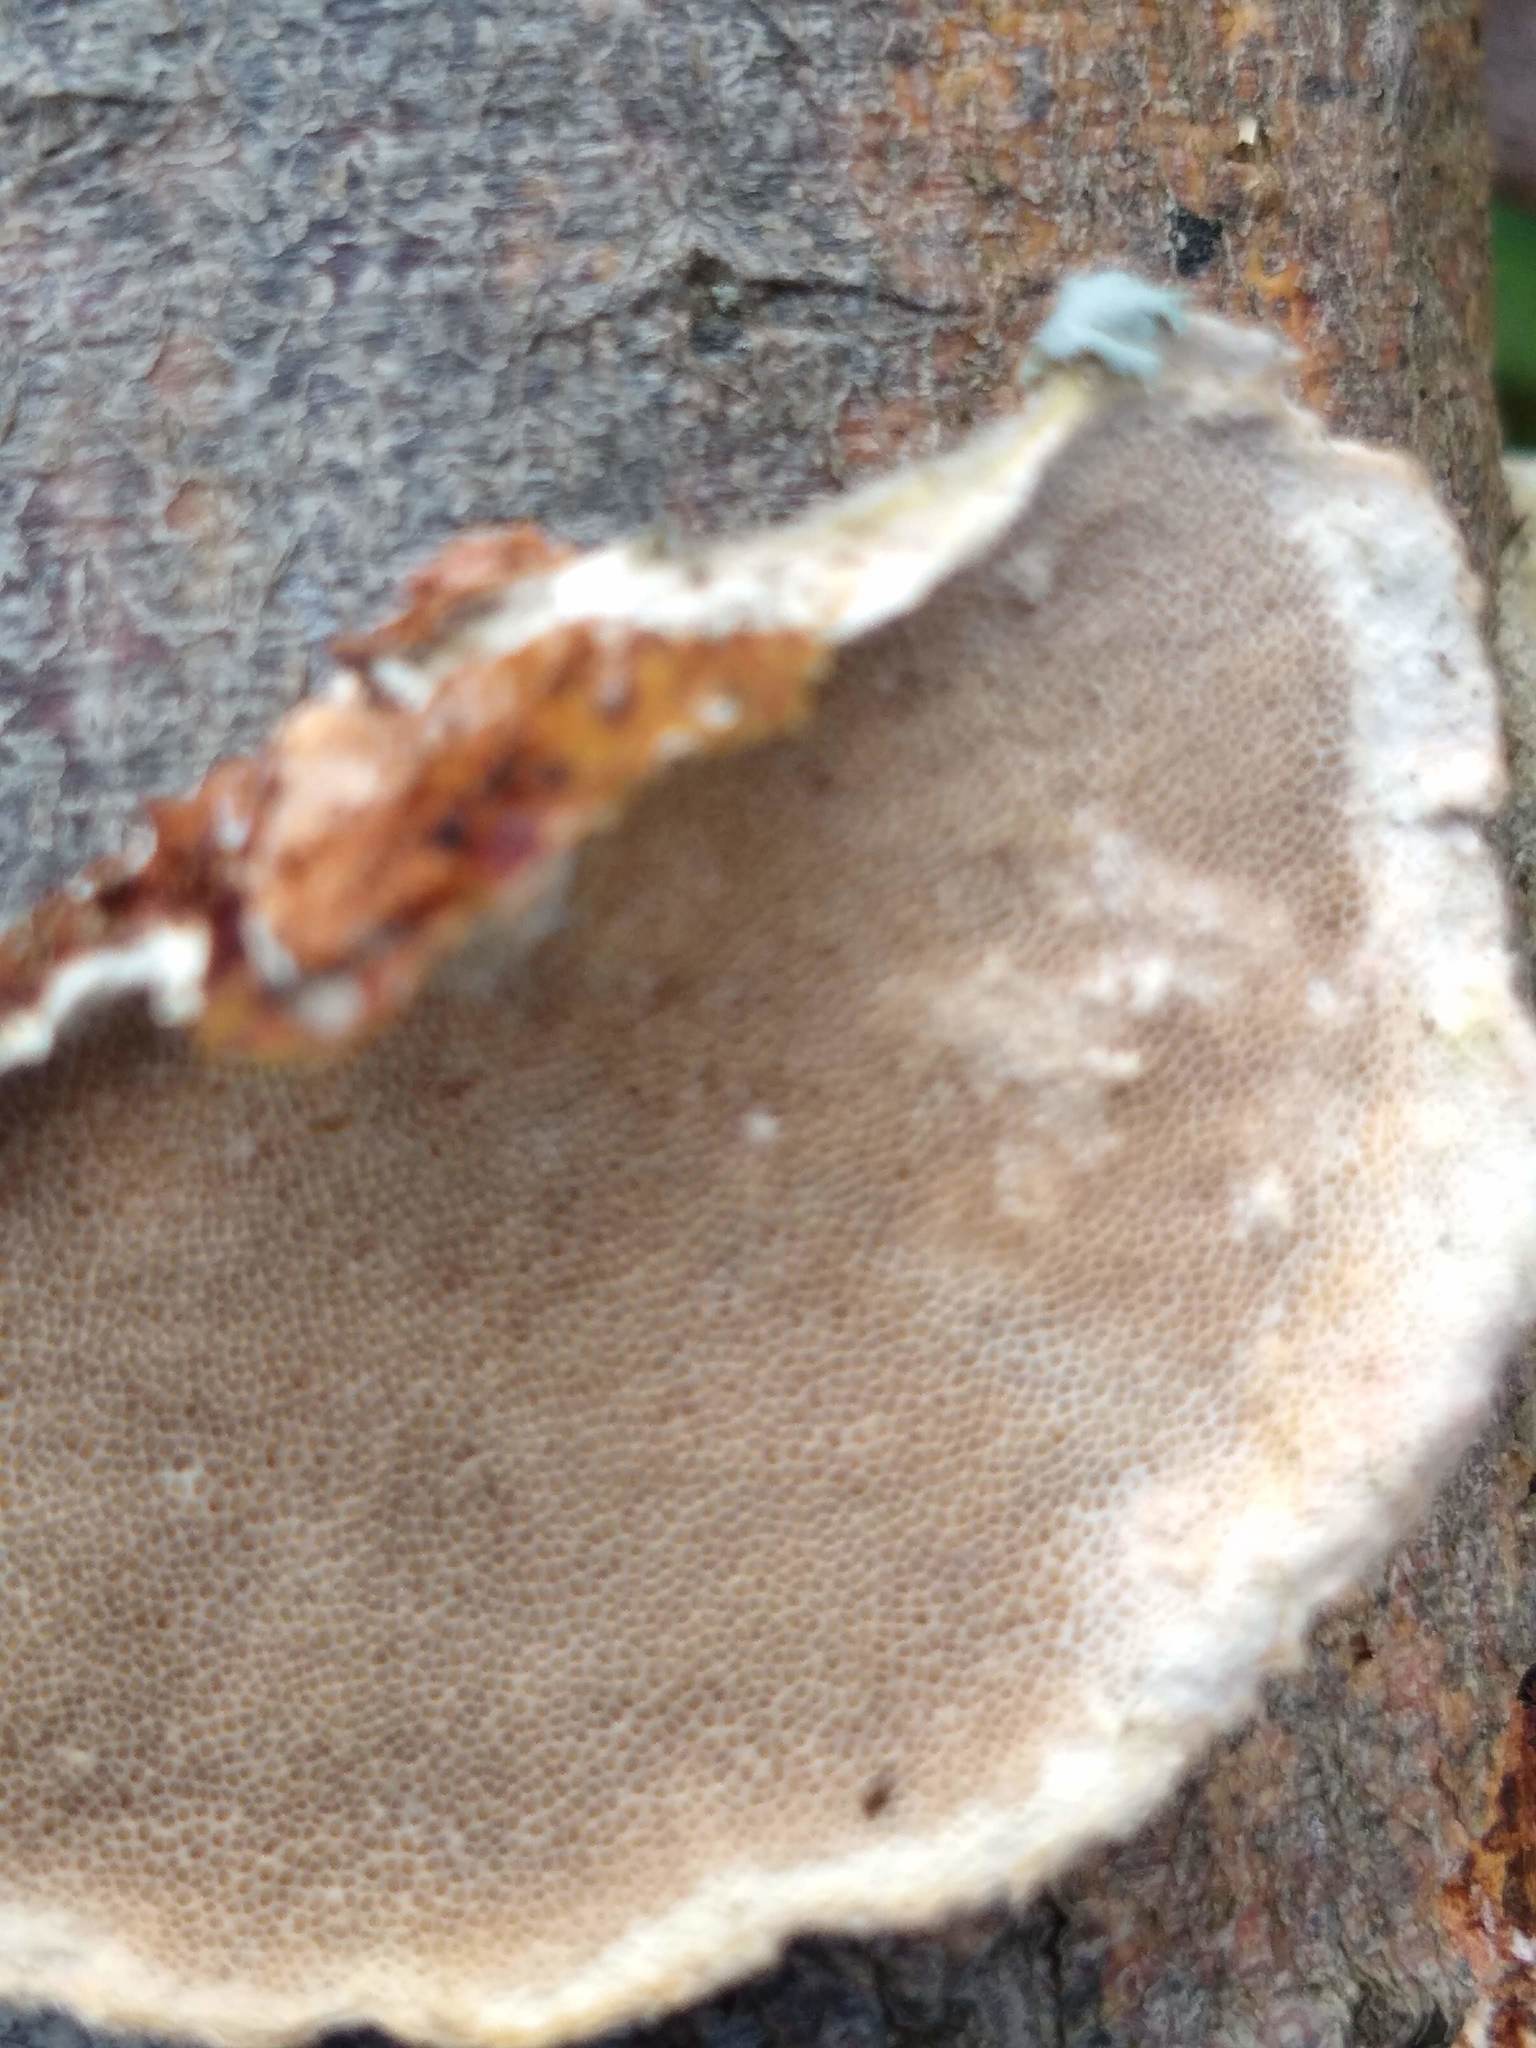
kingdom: Fungi
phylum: Basidiomycota
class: Agaricomycetes
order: Polyporales
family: Polyporaceae
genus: Trametes
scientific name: Trametes pubescens
